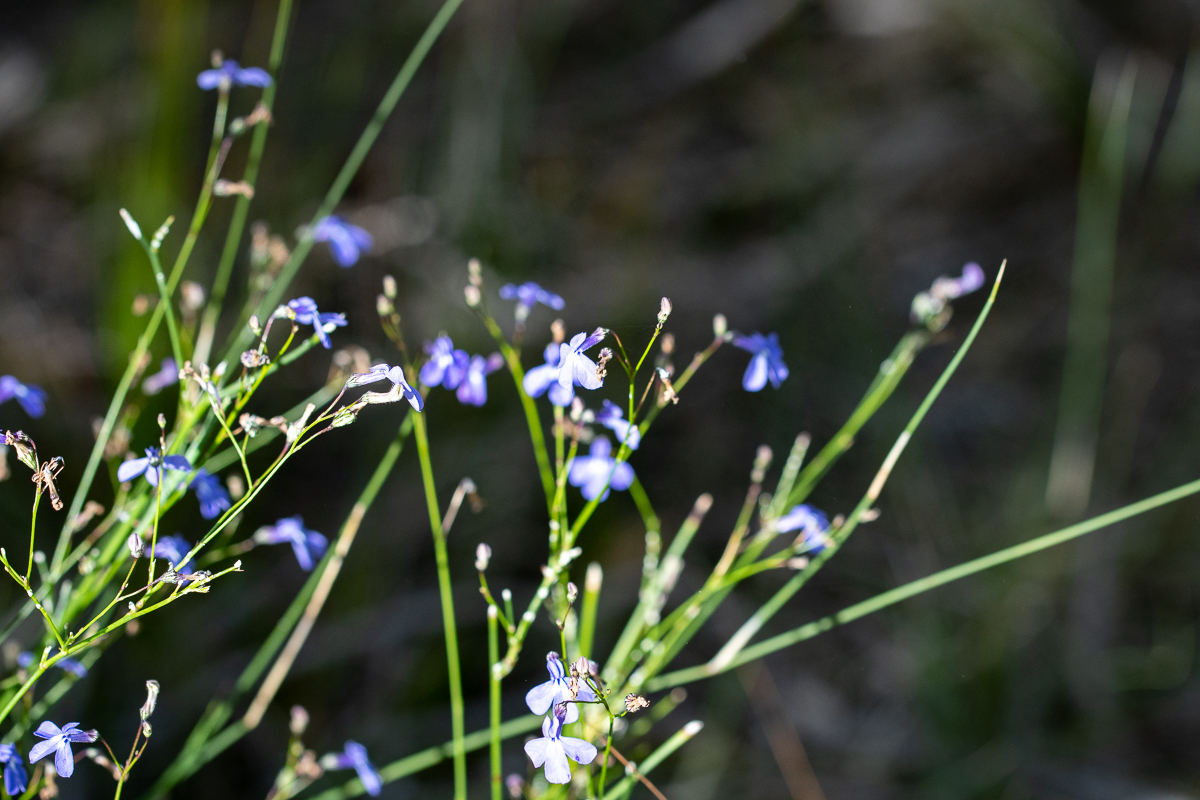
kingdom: Plantae
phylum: Tracheophyta
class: Magnoliopsida
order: Asterales
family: Campanulaceae
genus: Lobelia
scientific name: Lobelia setacea
